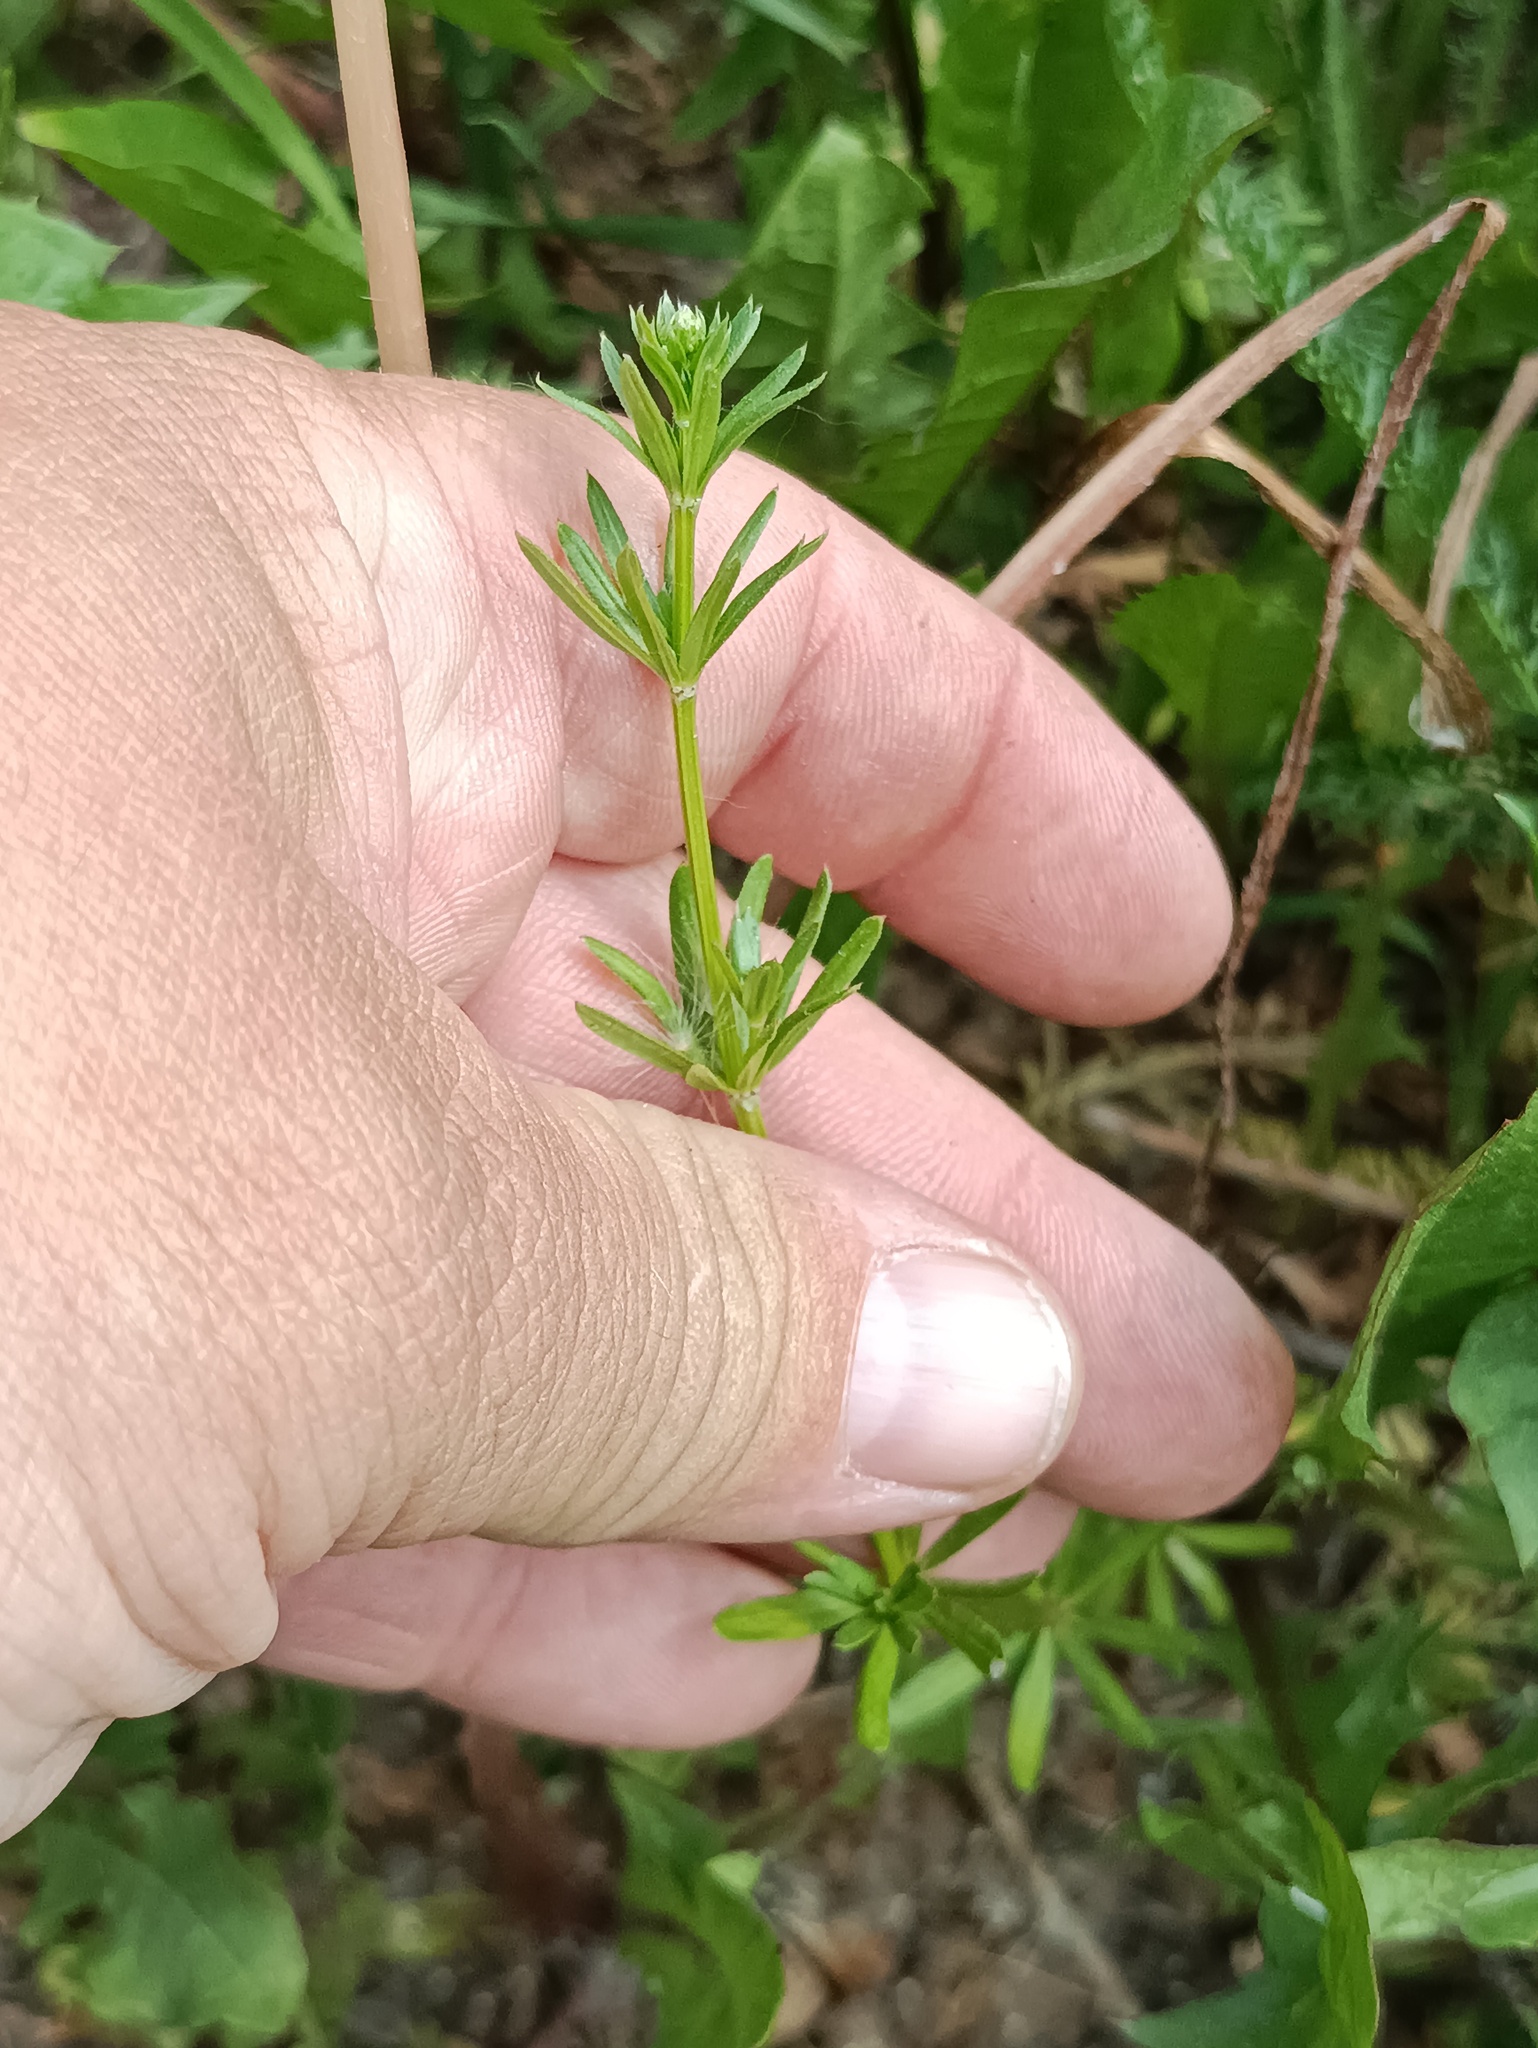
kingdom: Plantae
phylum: Tracheophyta
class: Magnoliopsida
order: Gentianales
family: Rubiaceae
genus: Galium
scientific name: Galium mollugo
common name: Hedge bedstraw
